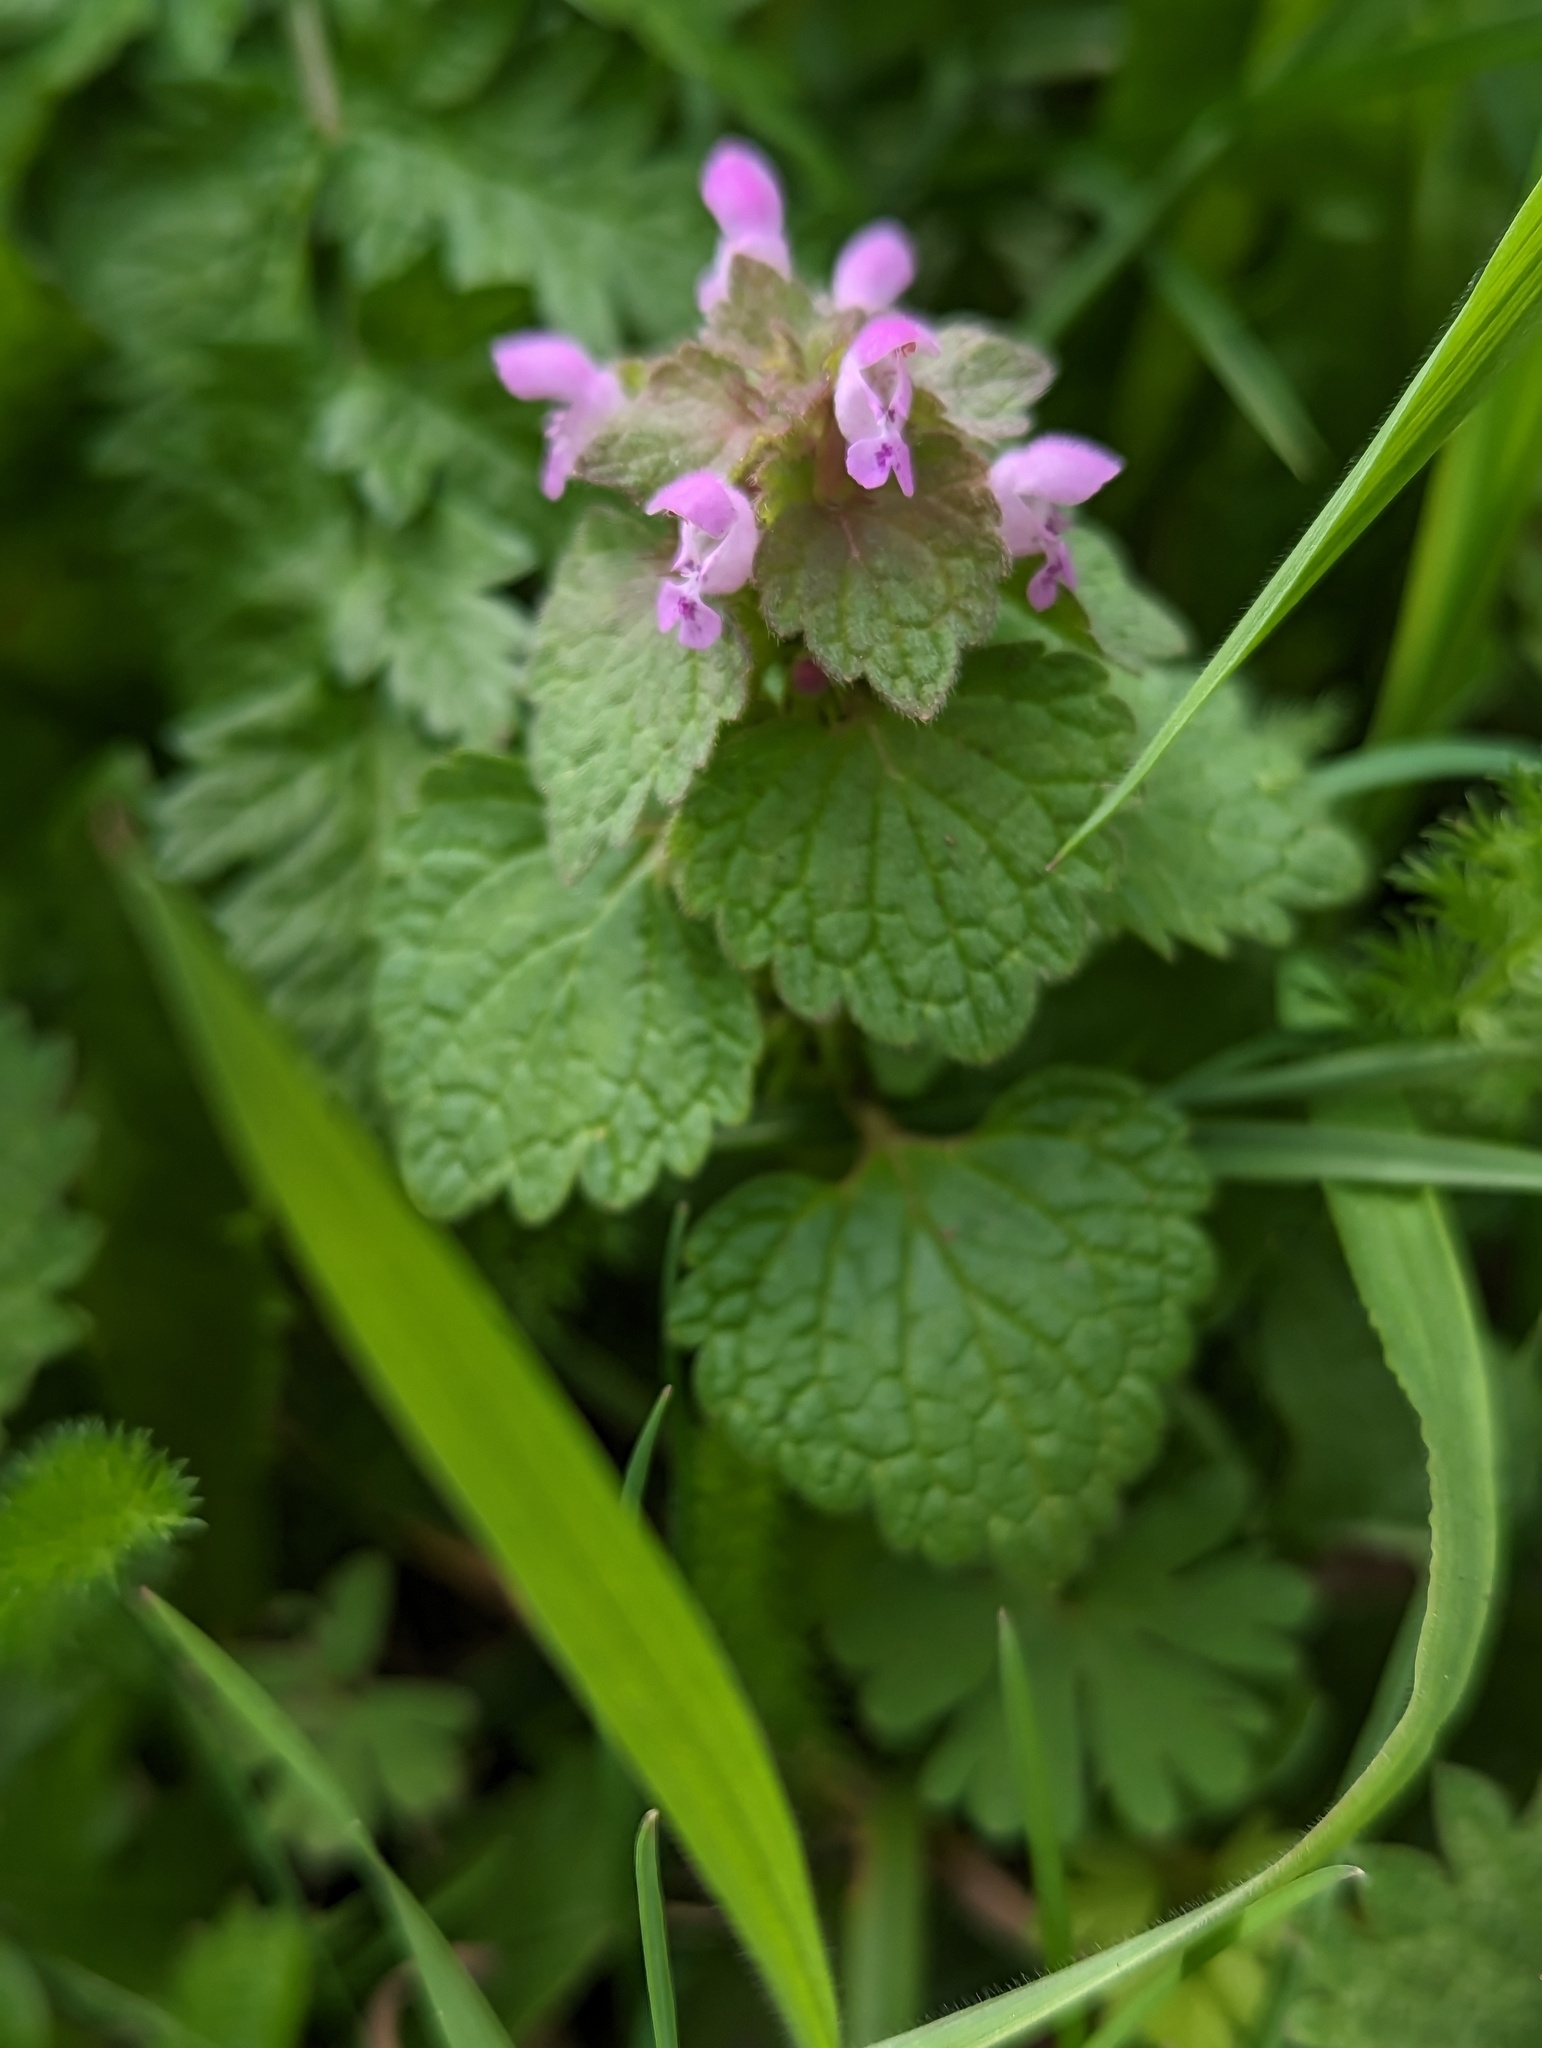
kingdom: Plantae
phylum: Tracheophyta
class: Magnoliopsida
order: Lamiales
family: Lamiaceae
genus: Lamium
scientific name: Lamium purpureum
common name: Red dead-nettle
